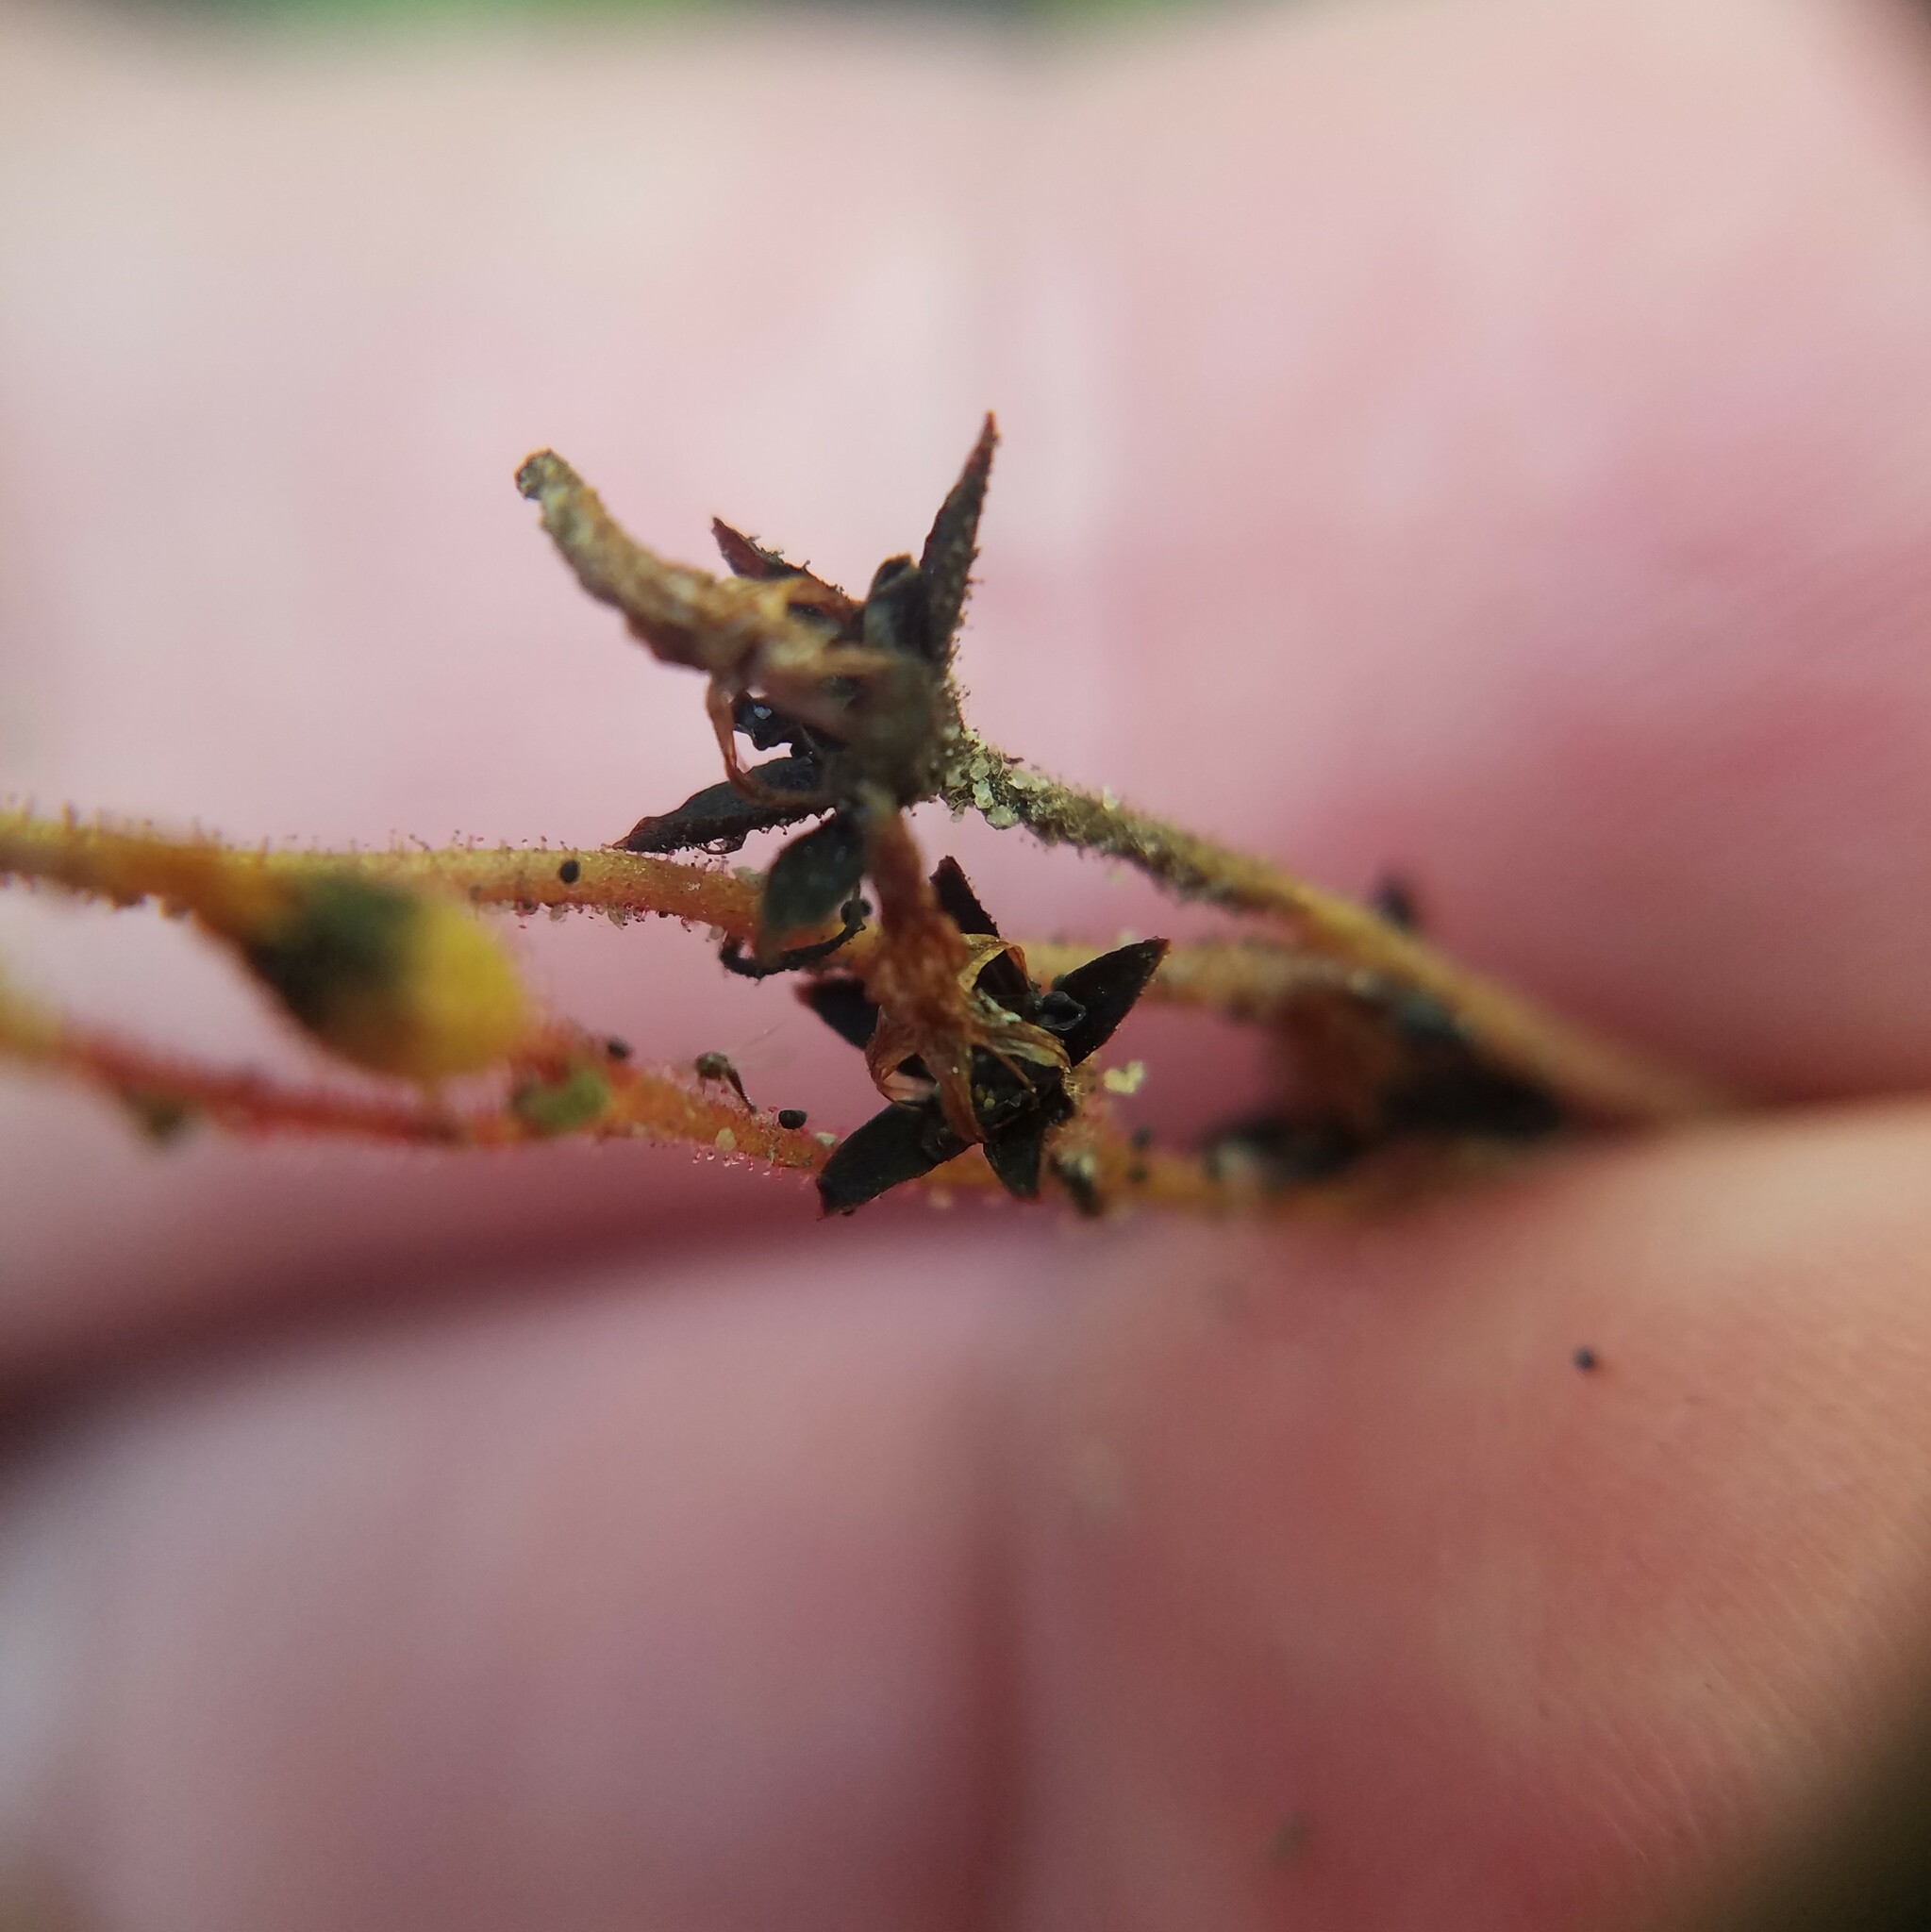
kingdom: Plantae
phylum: Tracheophyta
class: Magnoliopsida
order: Caryophyllales
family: Droseraceae
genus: Drosera
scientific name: Drosera brevifolia
